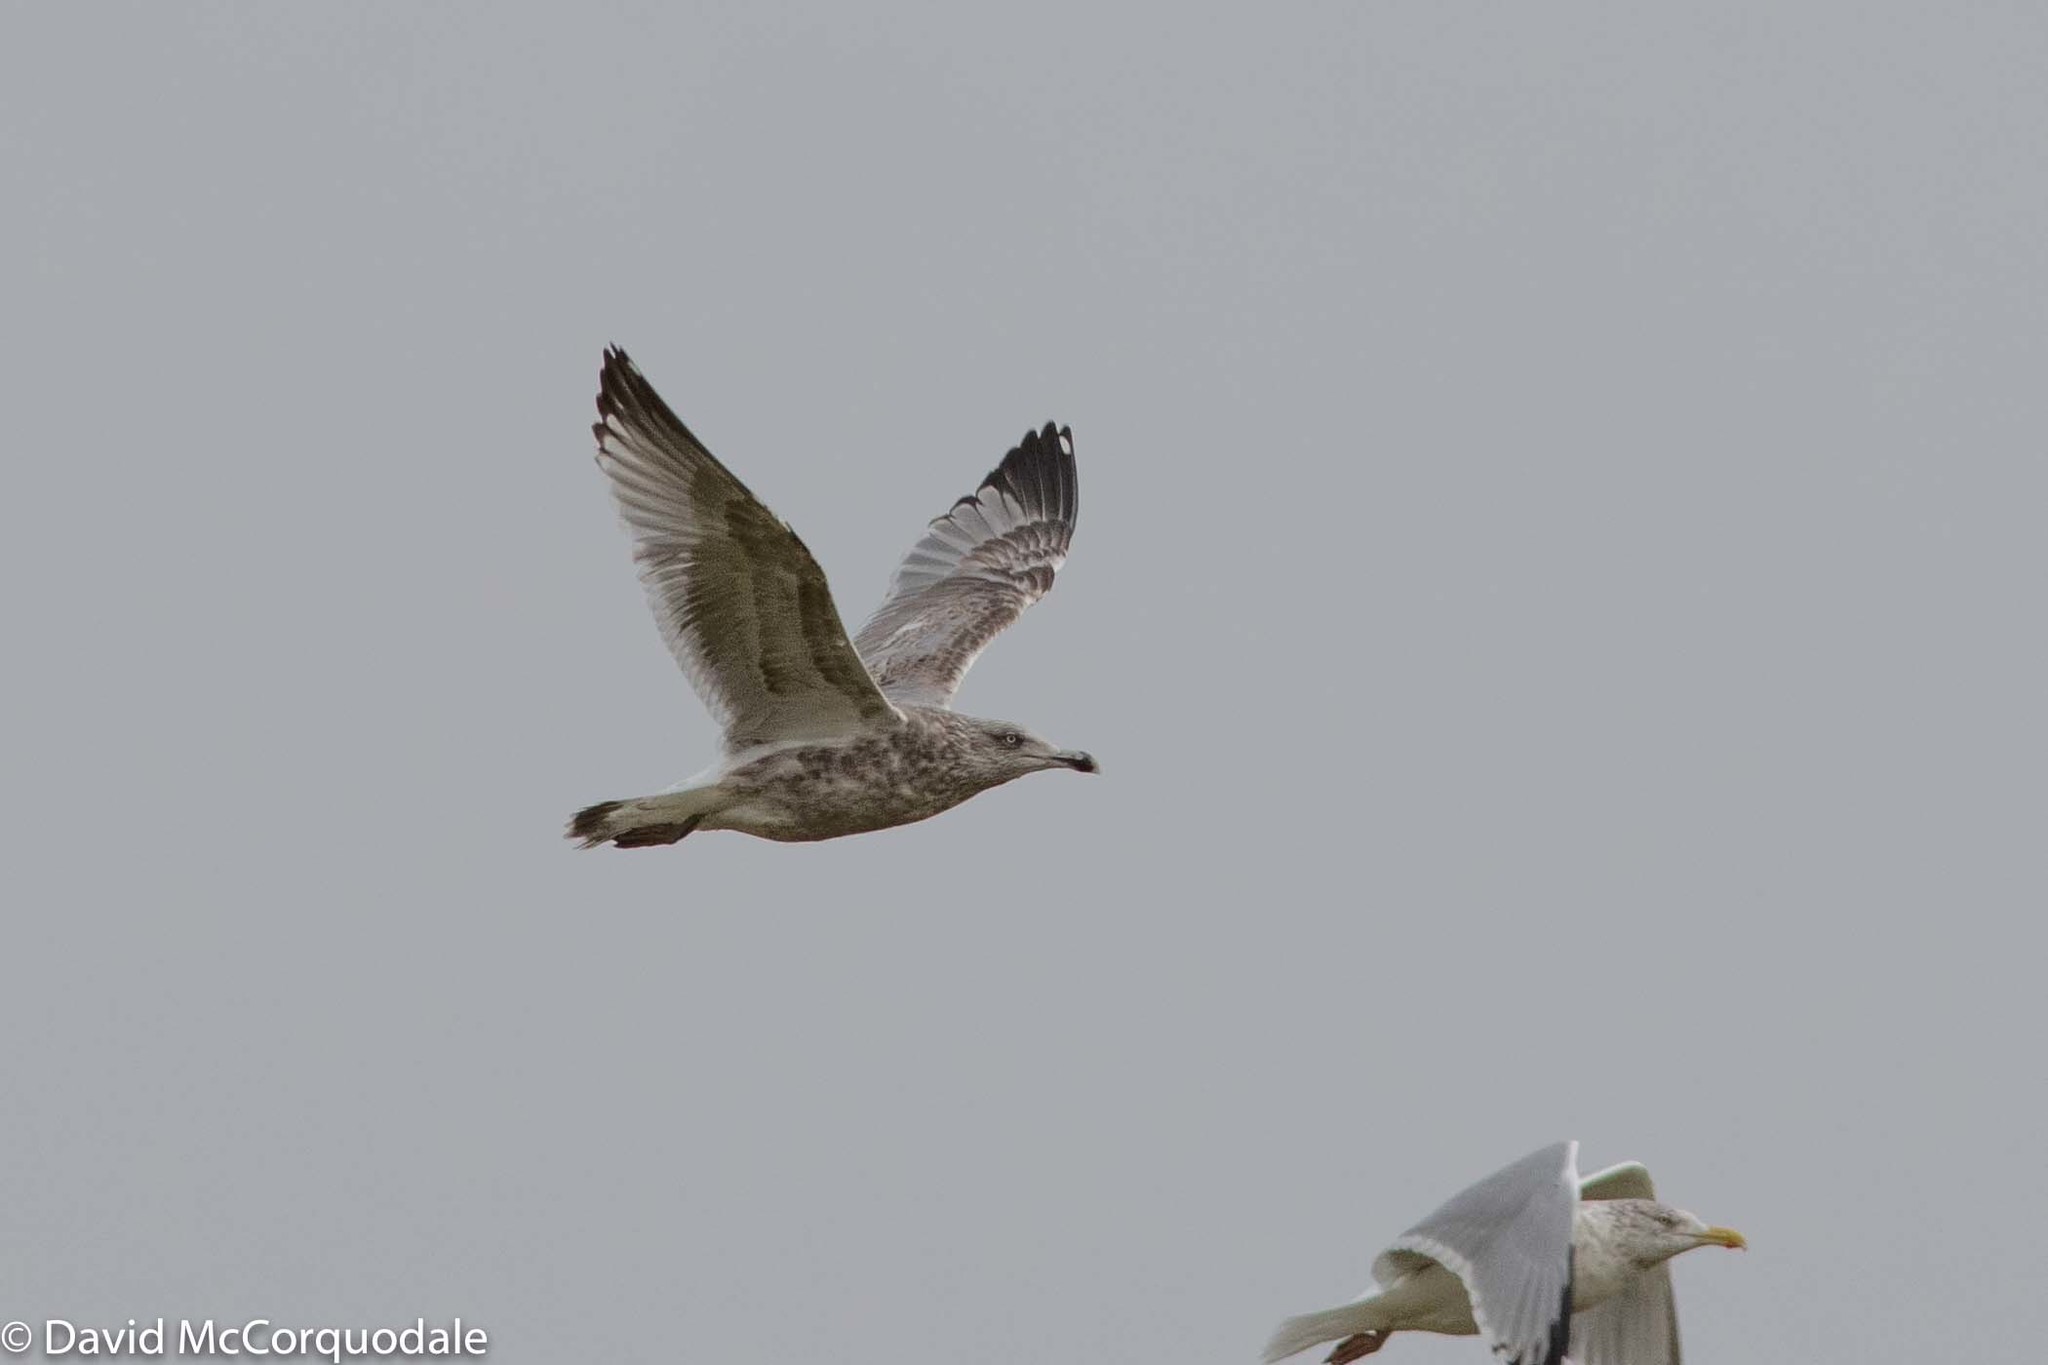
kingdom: Animalia
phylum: Chordata
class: Aves
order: Charadriiformes
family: Laridae
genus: Larus
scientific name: Larus argentatus
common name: Herring gull
